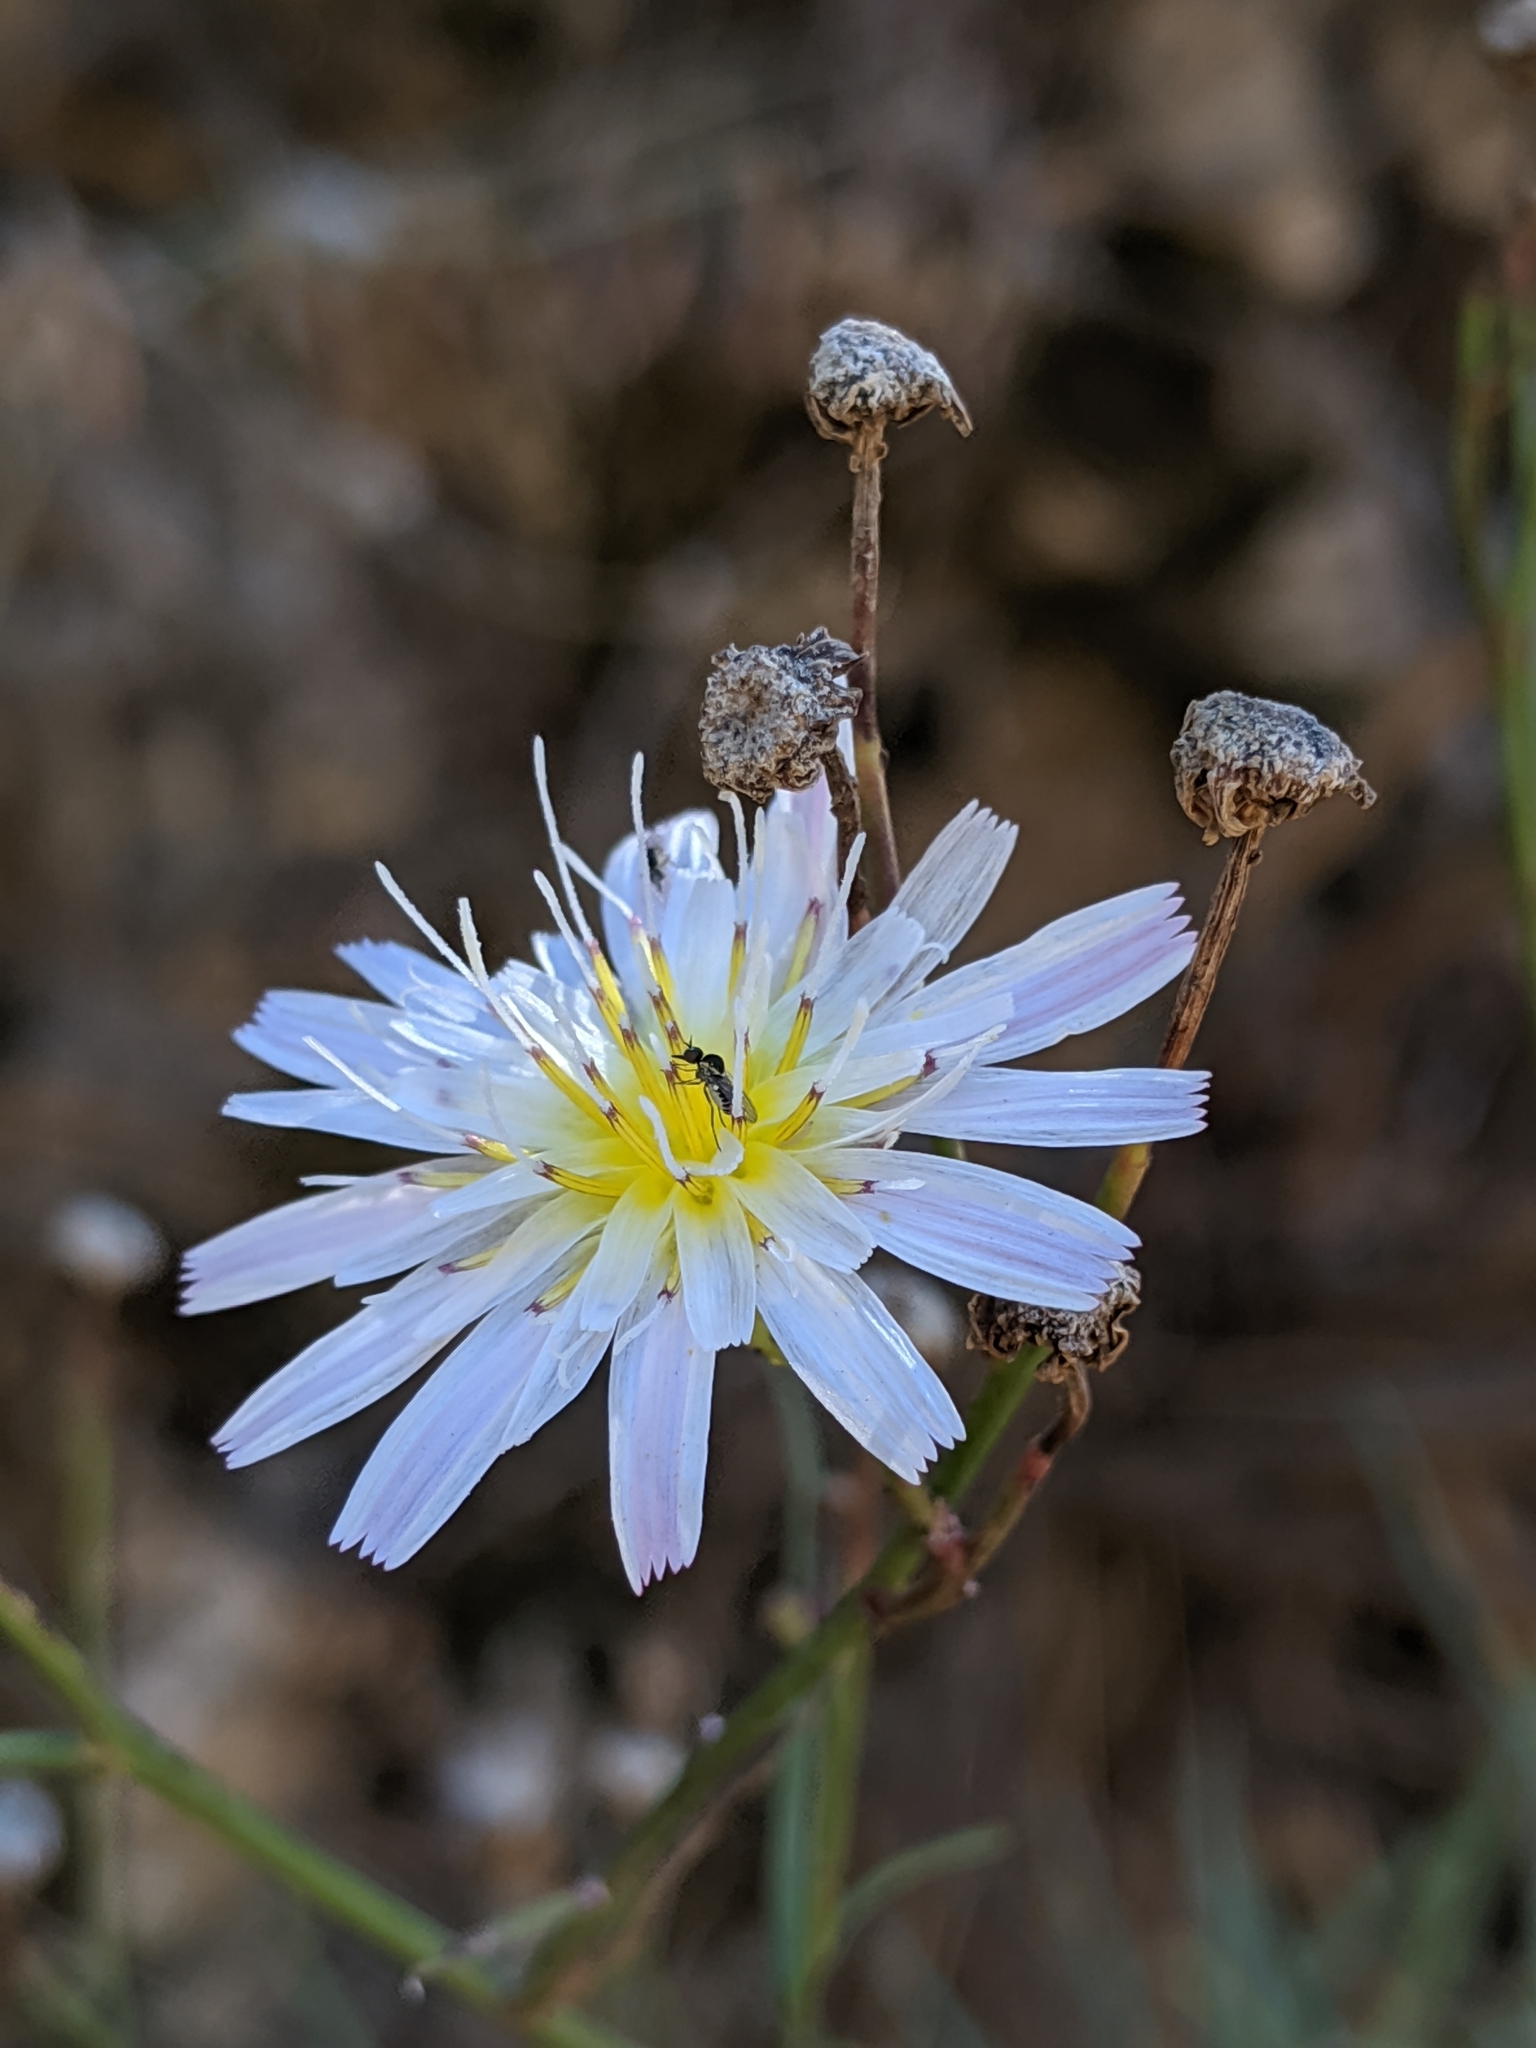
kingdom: Plantae
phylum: Tracheophyta
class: Magnoliopsida
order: Asterales
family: Asteraceae
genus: Malacothrix
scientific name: Malacothrix saxatilis
